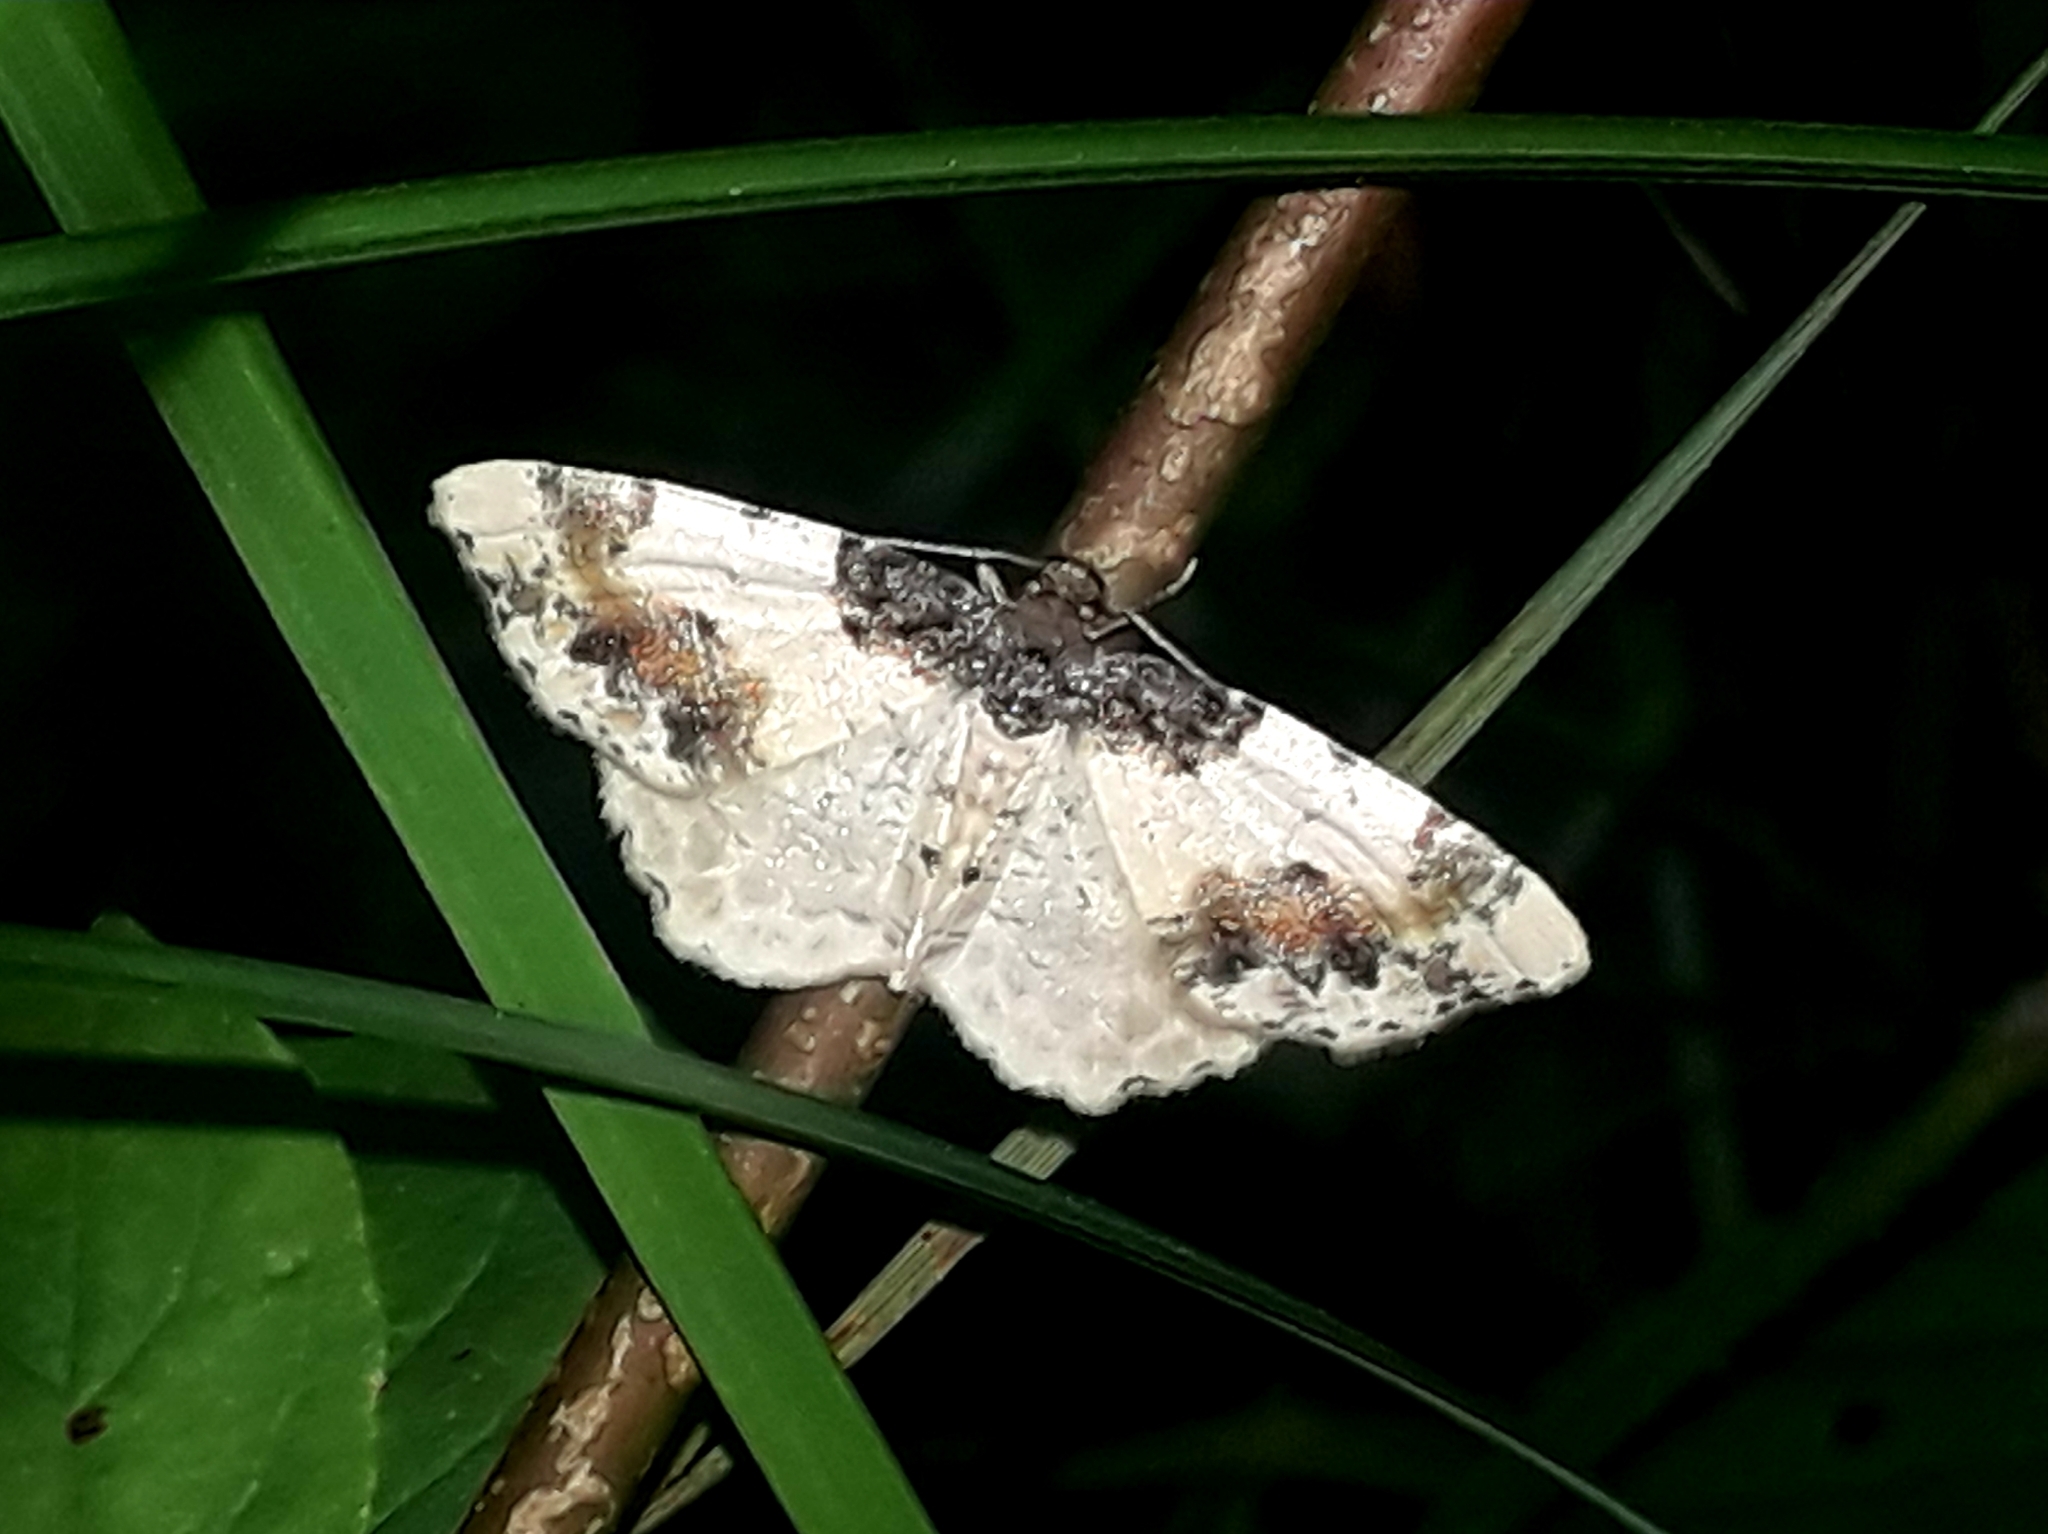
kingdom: Animalia
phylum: Arthropoda
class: Insecta
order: Lepidoptera
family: Geometridae
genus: Ligdia
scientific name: Ligdia adustata
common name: Scorched carpet
